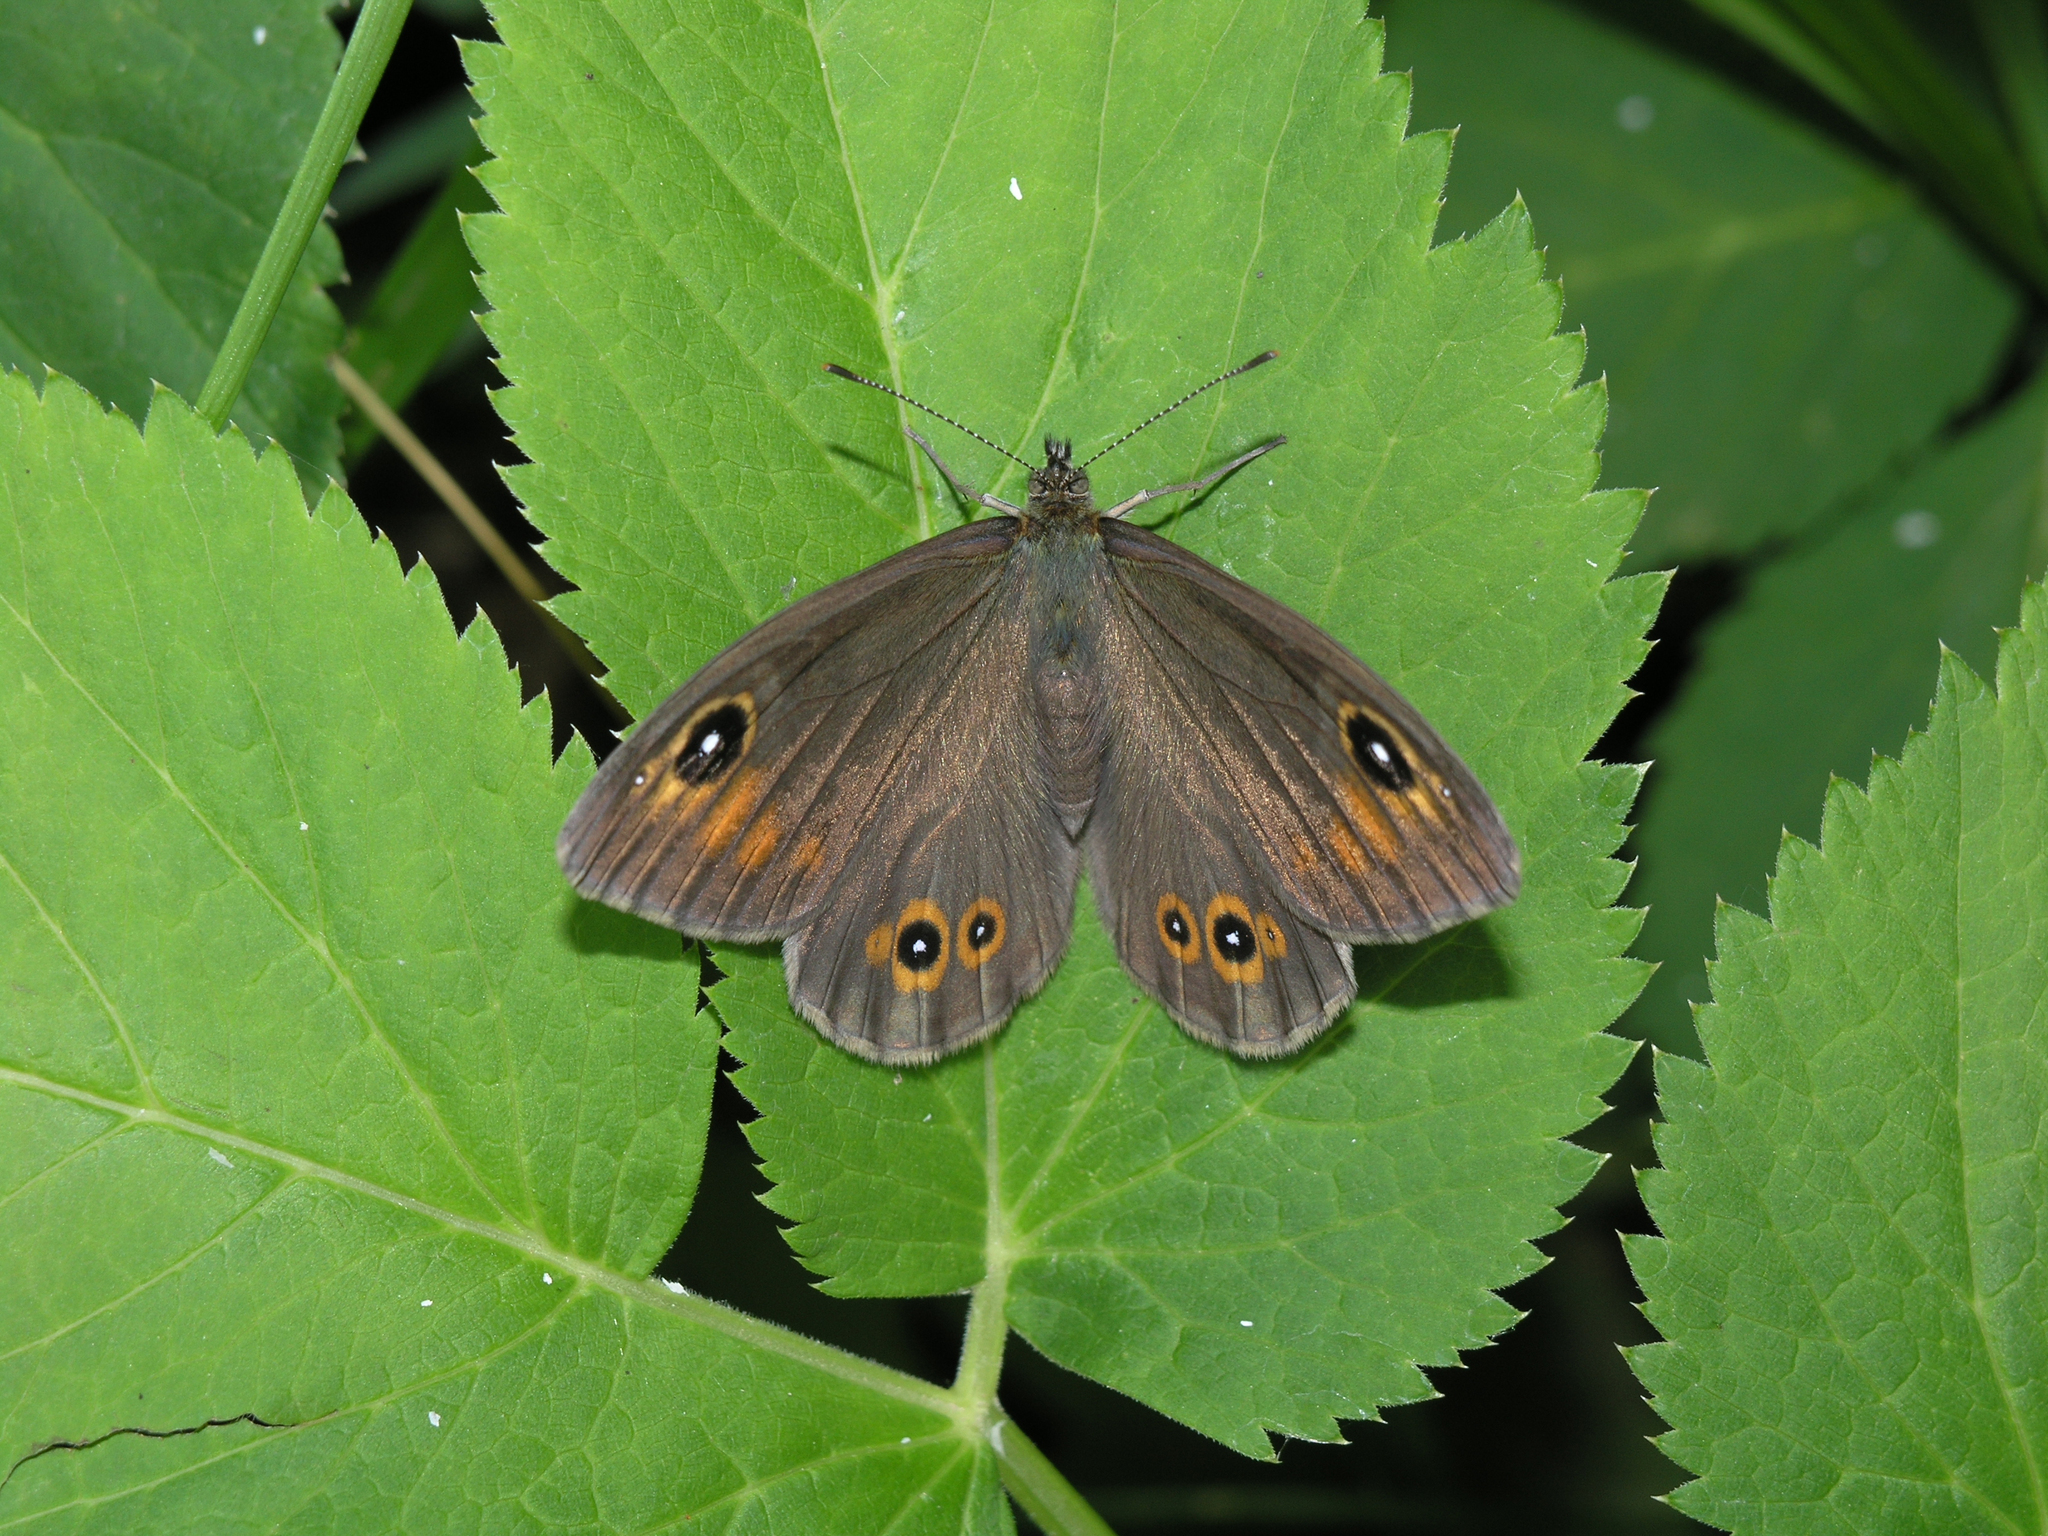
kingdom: Animalia
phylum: Arthropoda
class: Insecta
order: Lepidoptera
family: Nymphalidae
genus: Pararge
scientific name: Pararge Lasiommata maera
